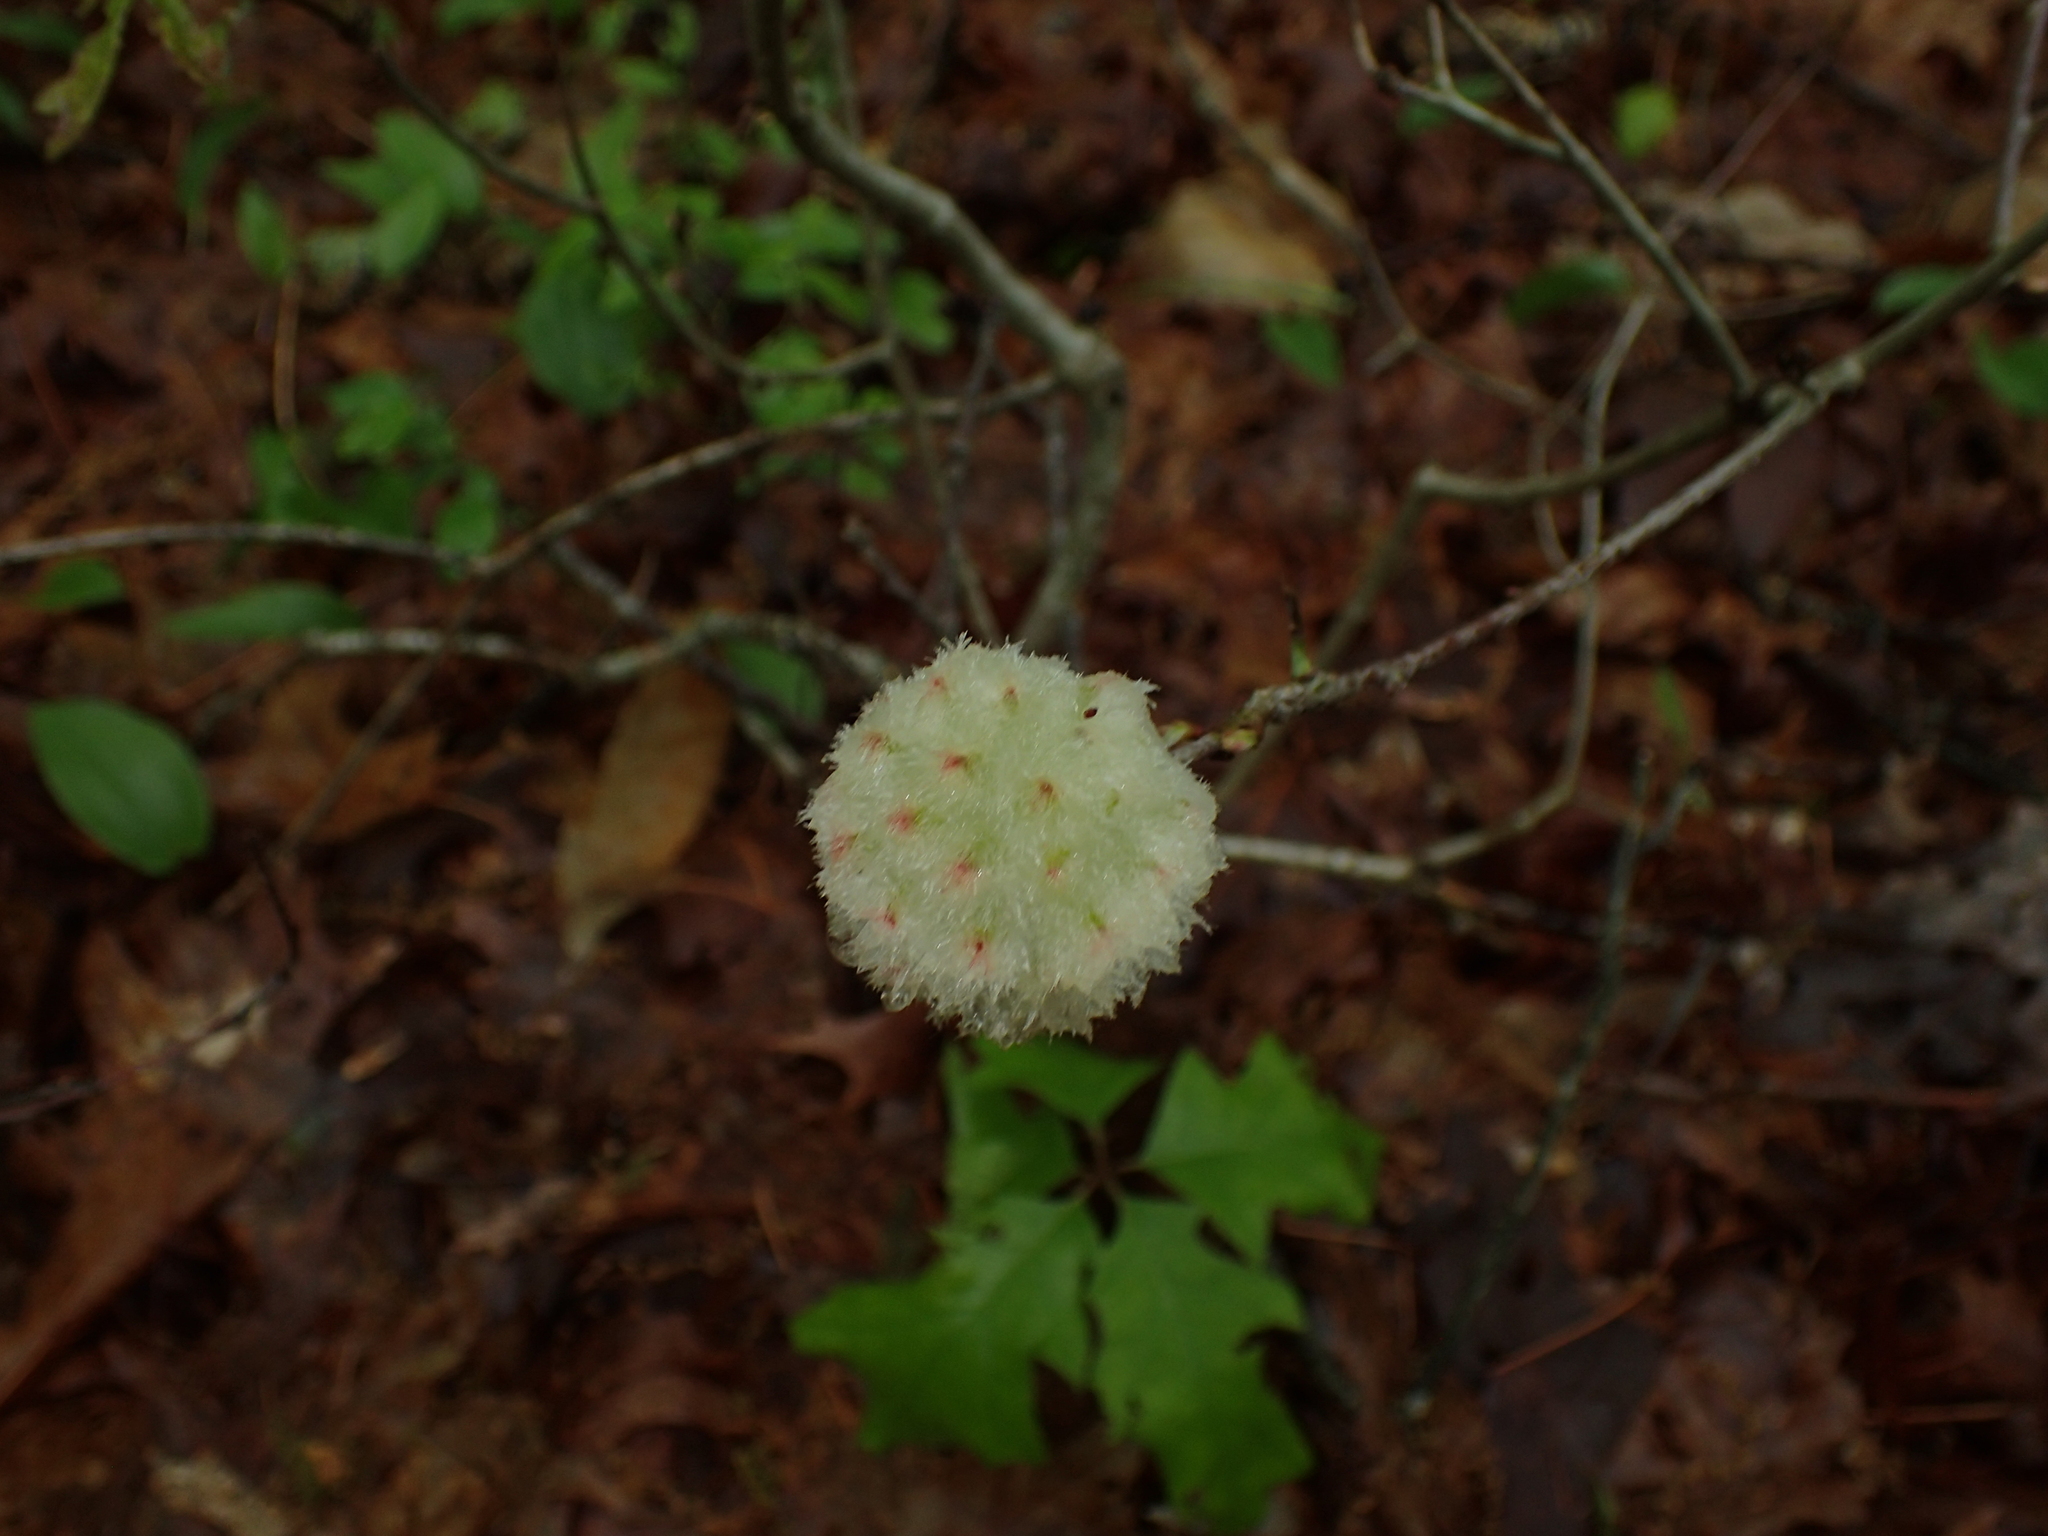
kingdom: Animalia
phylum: Arthropoda
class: Insecta
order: Hymenoptera
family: Cynipidae
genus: Callirhytis
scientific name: Callirhytis
